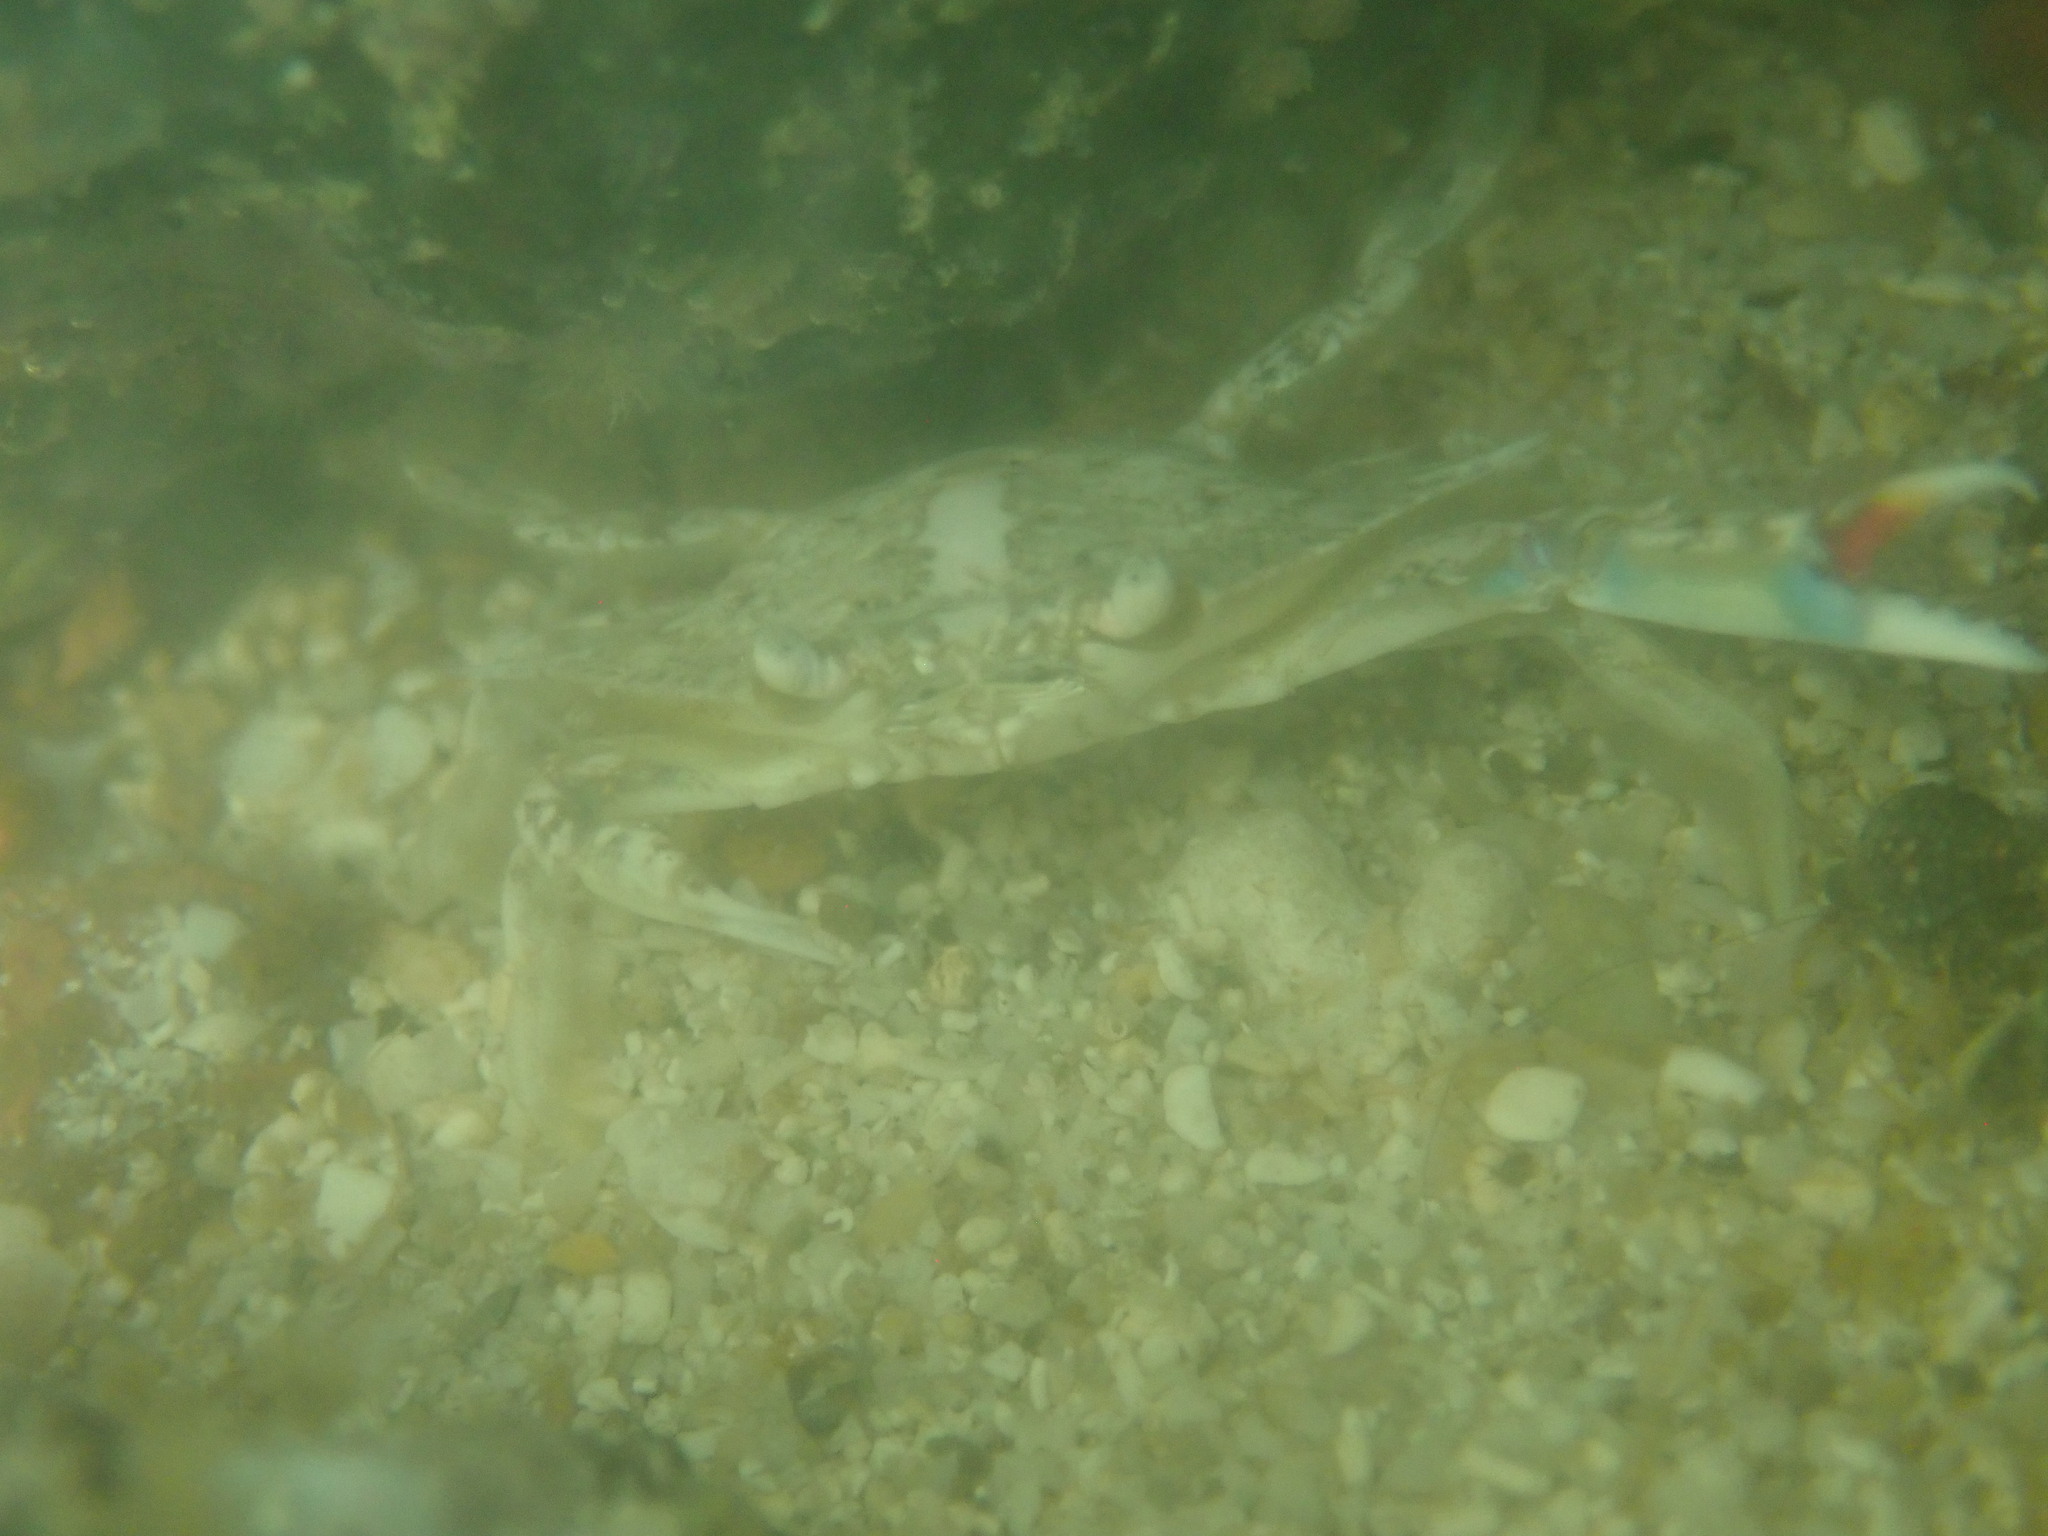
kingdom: Animalia
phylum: Arthropoda
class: Malacostraca
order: Decapoda
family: Portunidae
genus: Callinectes
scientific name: Callinectes arcuatus
